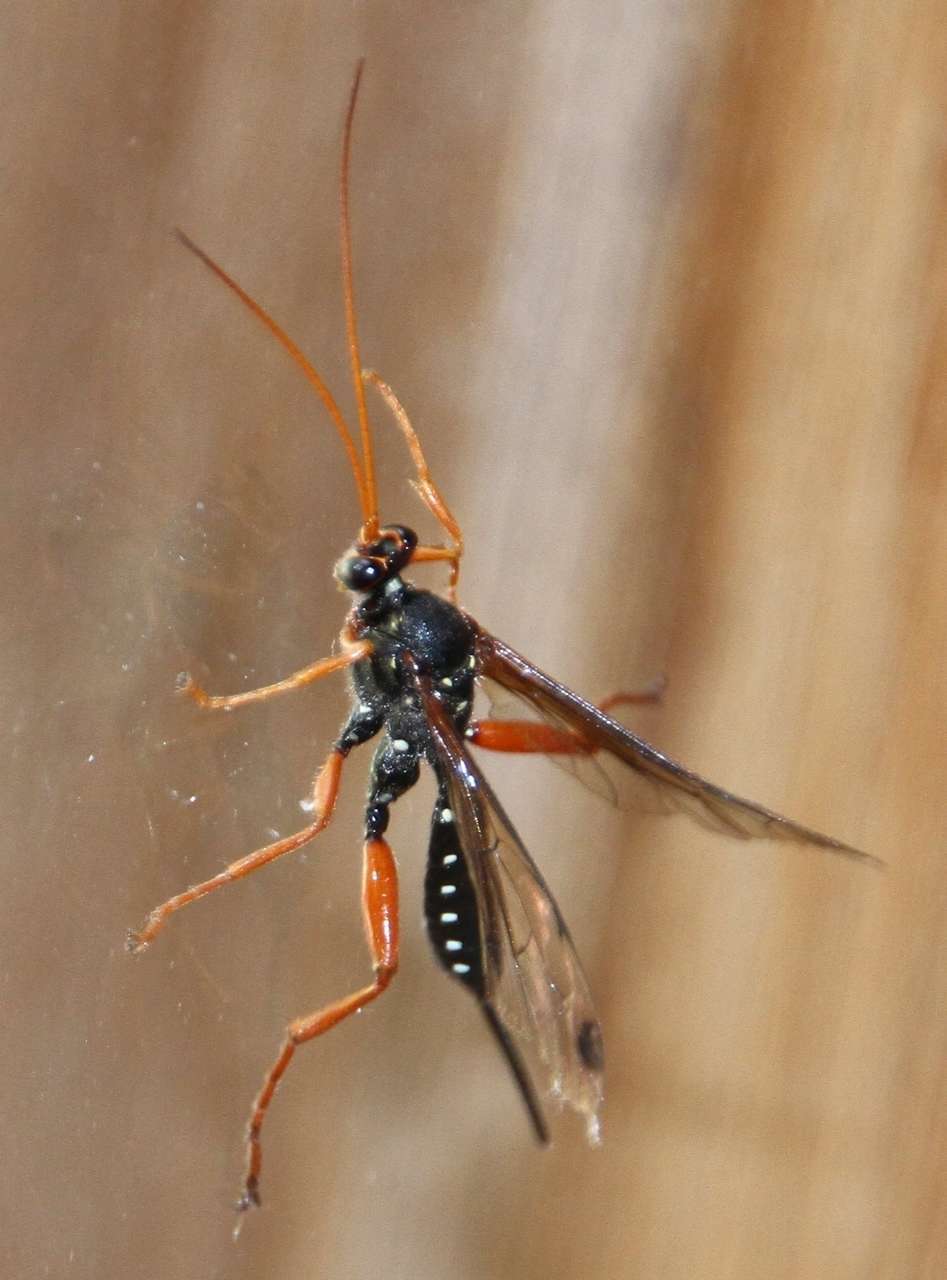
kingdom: Animalia
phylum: Arthropoda
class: Insecta
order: Hymenoptera
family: Ichneumonidae
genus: Echthromorpha
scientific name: Echthromorpha intricatoria
